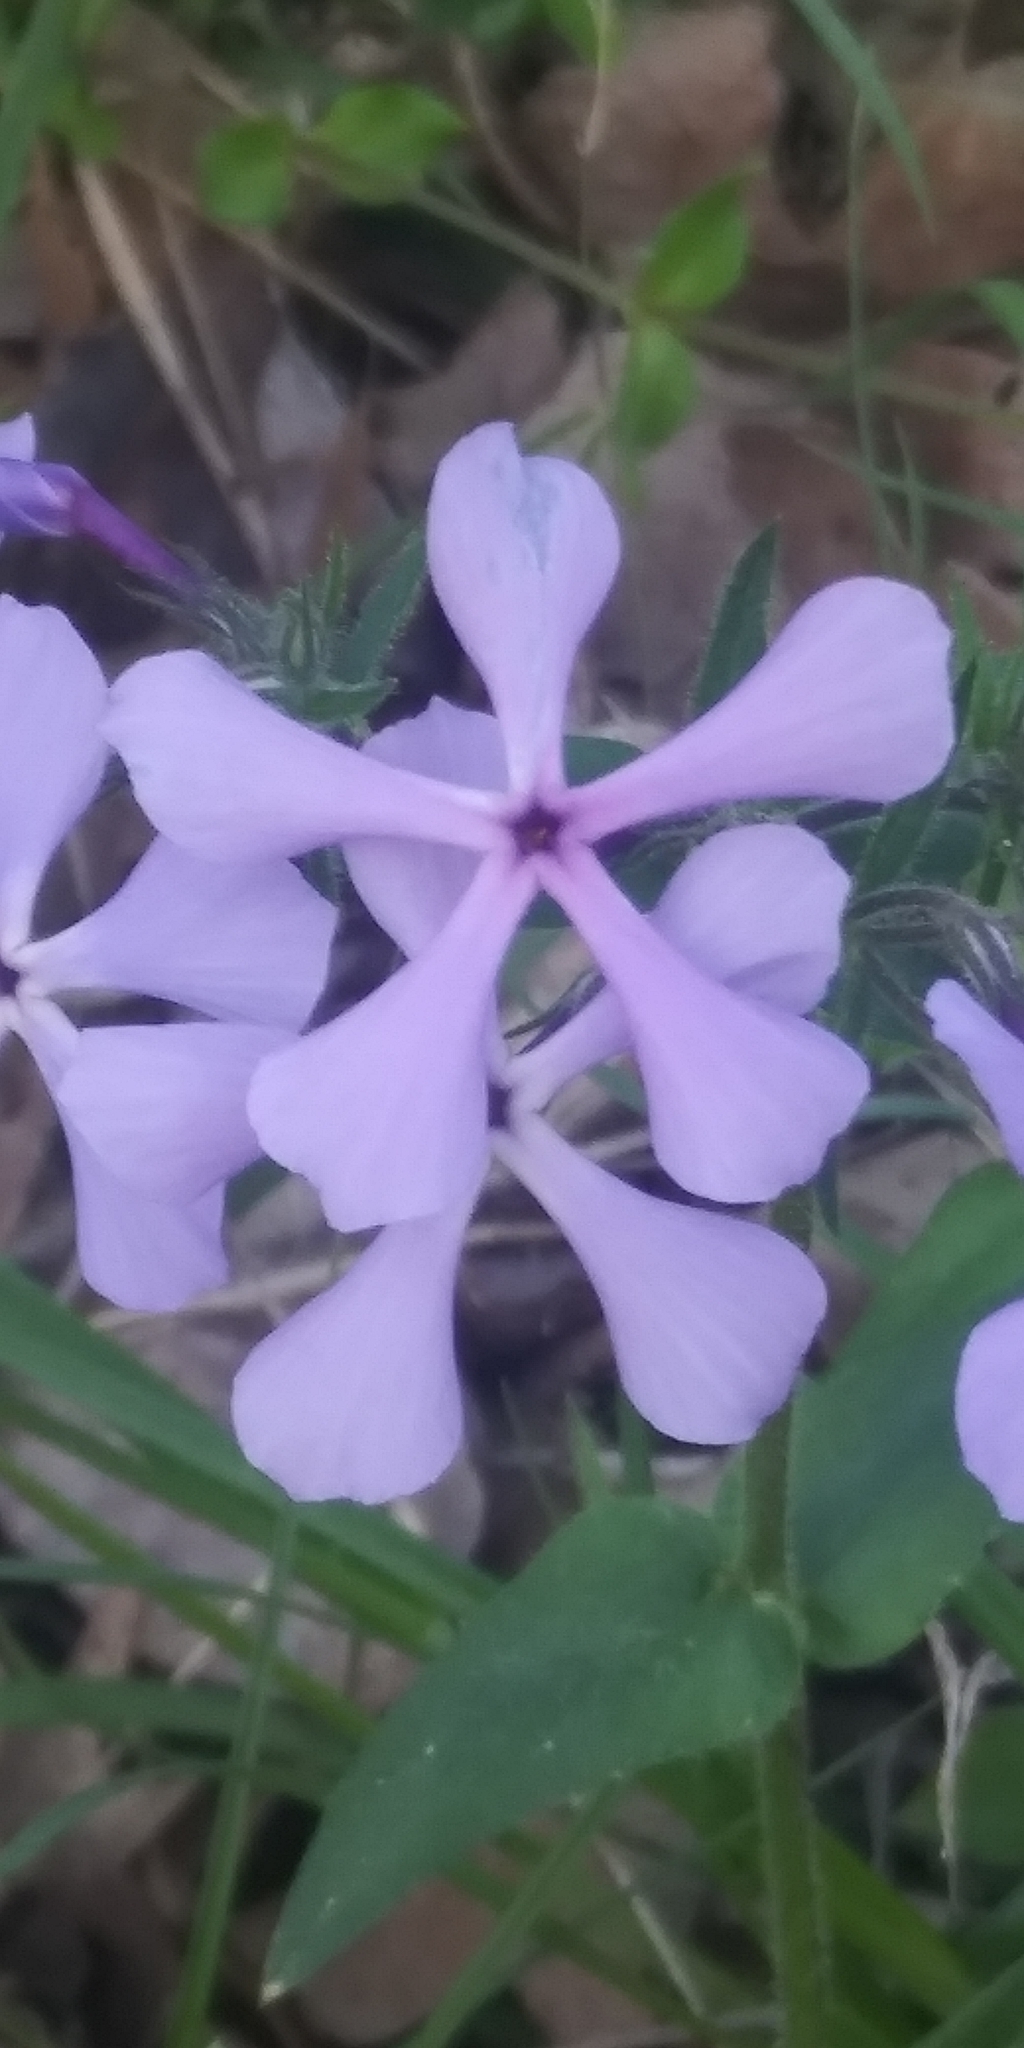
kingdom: Plantae
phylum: Tracheophyta
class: Magnoliopsida
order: Ericales
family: Polemoniaceae
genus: Phlox
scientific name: Phlox divaricata
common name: Blue phlox
